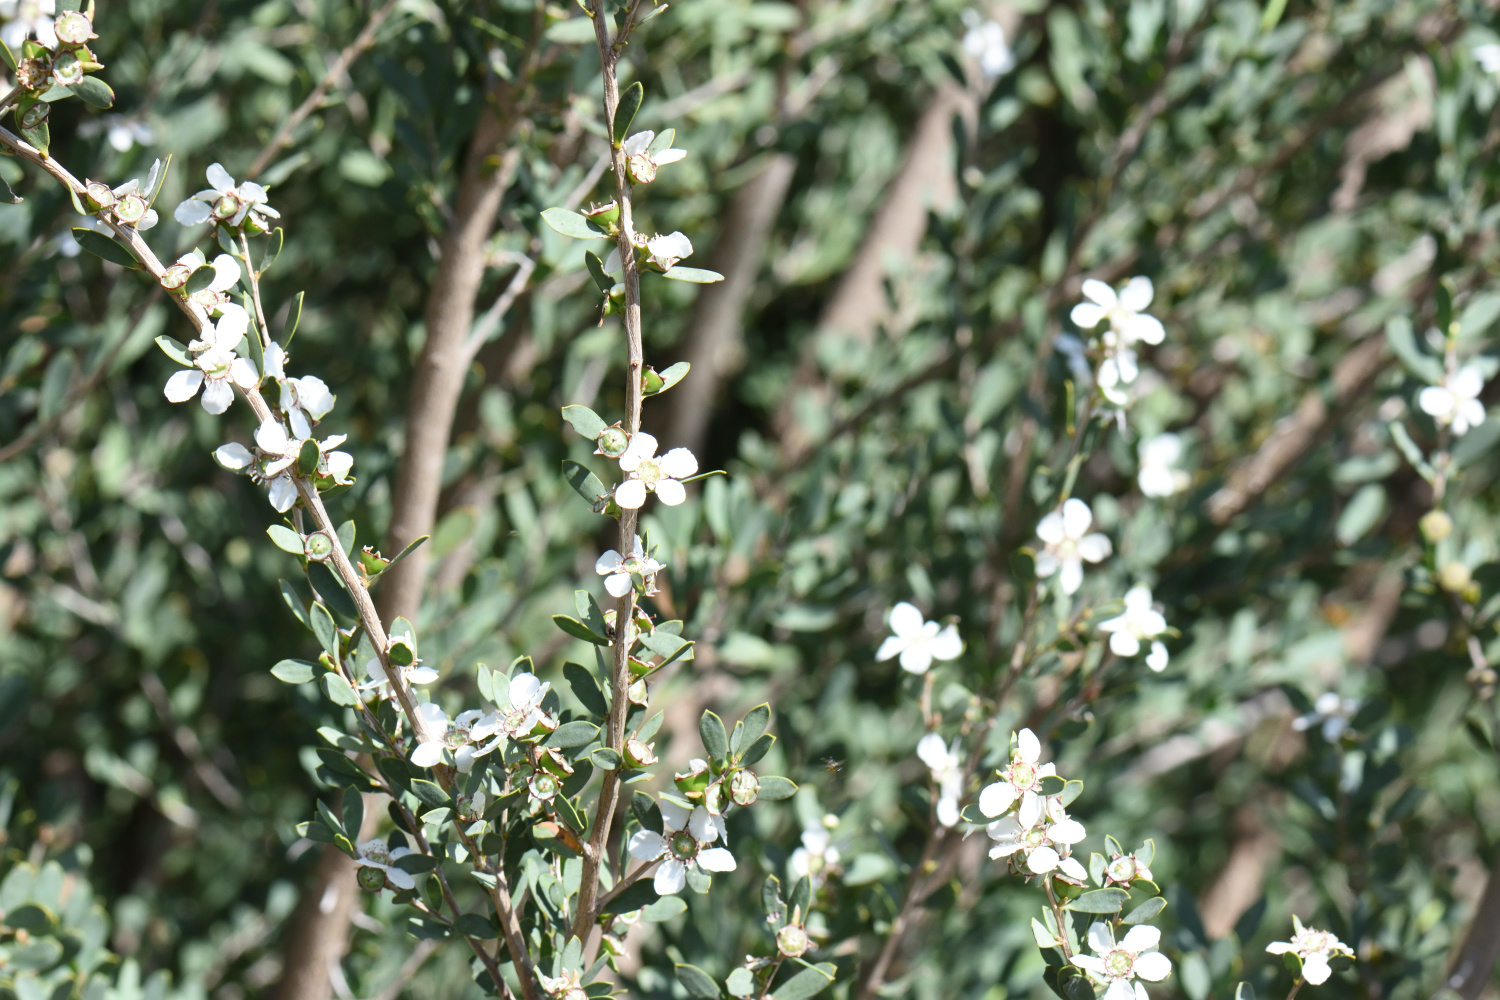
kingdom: Plantae
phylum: Tracheophyta
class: Magnoliopsida
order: Myrtales
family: Myrtaceae
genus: Leptospermum
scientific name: Leptospermum laevigatum
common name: Australian teatree
